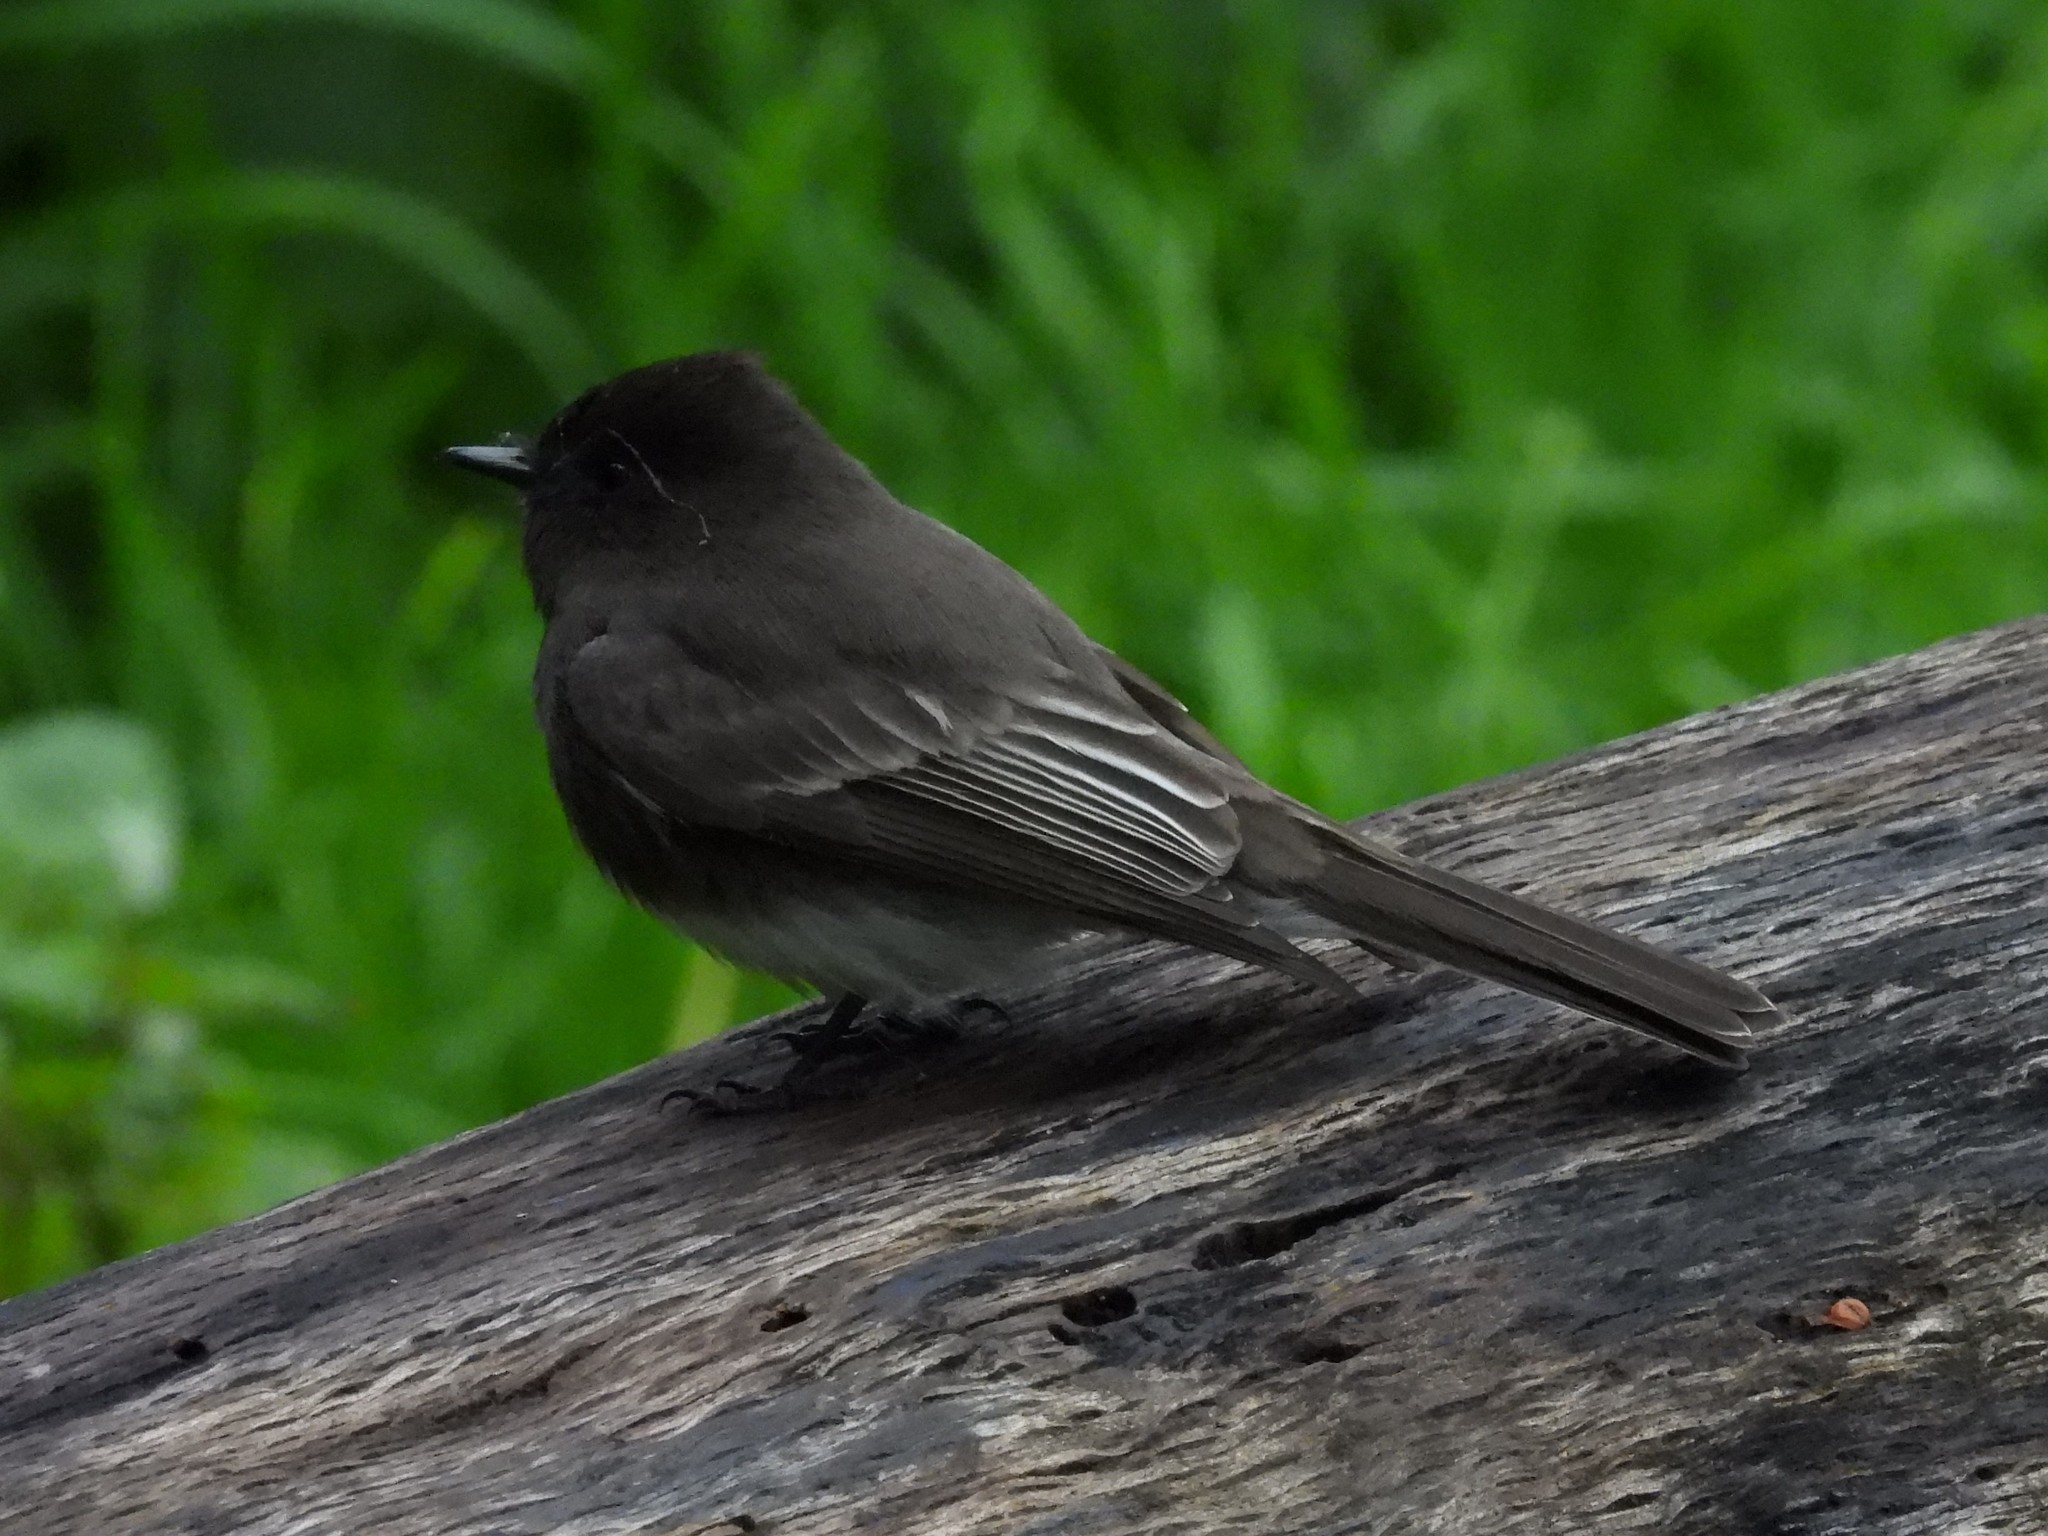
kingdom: Animalia
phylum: Chordata
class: Aves
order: Passeriformes
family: Tyrannidae
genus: Sayornis
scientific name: Sayornis nigricans
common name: Black phoebe
